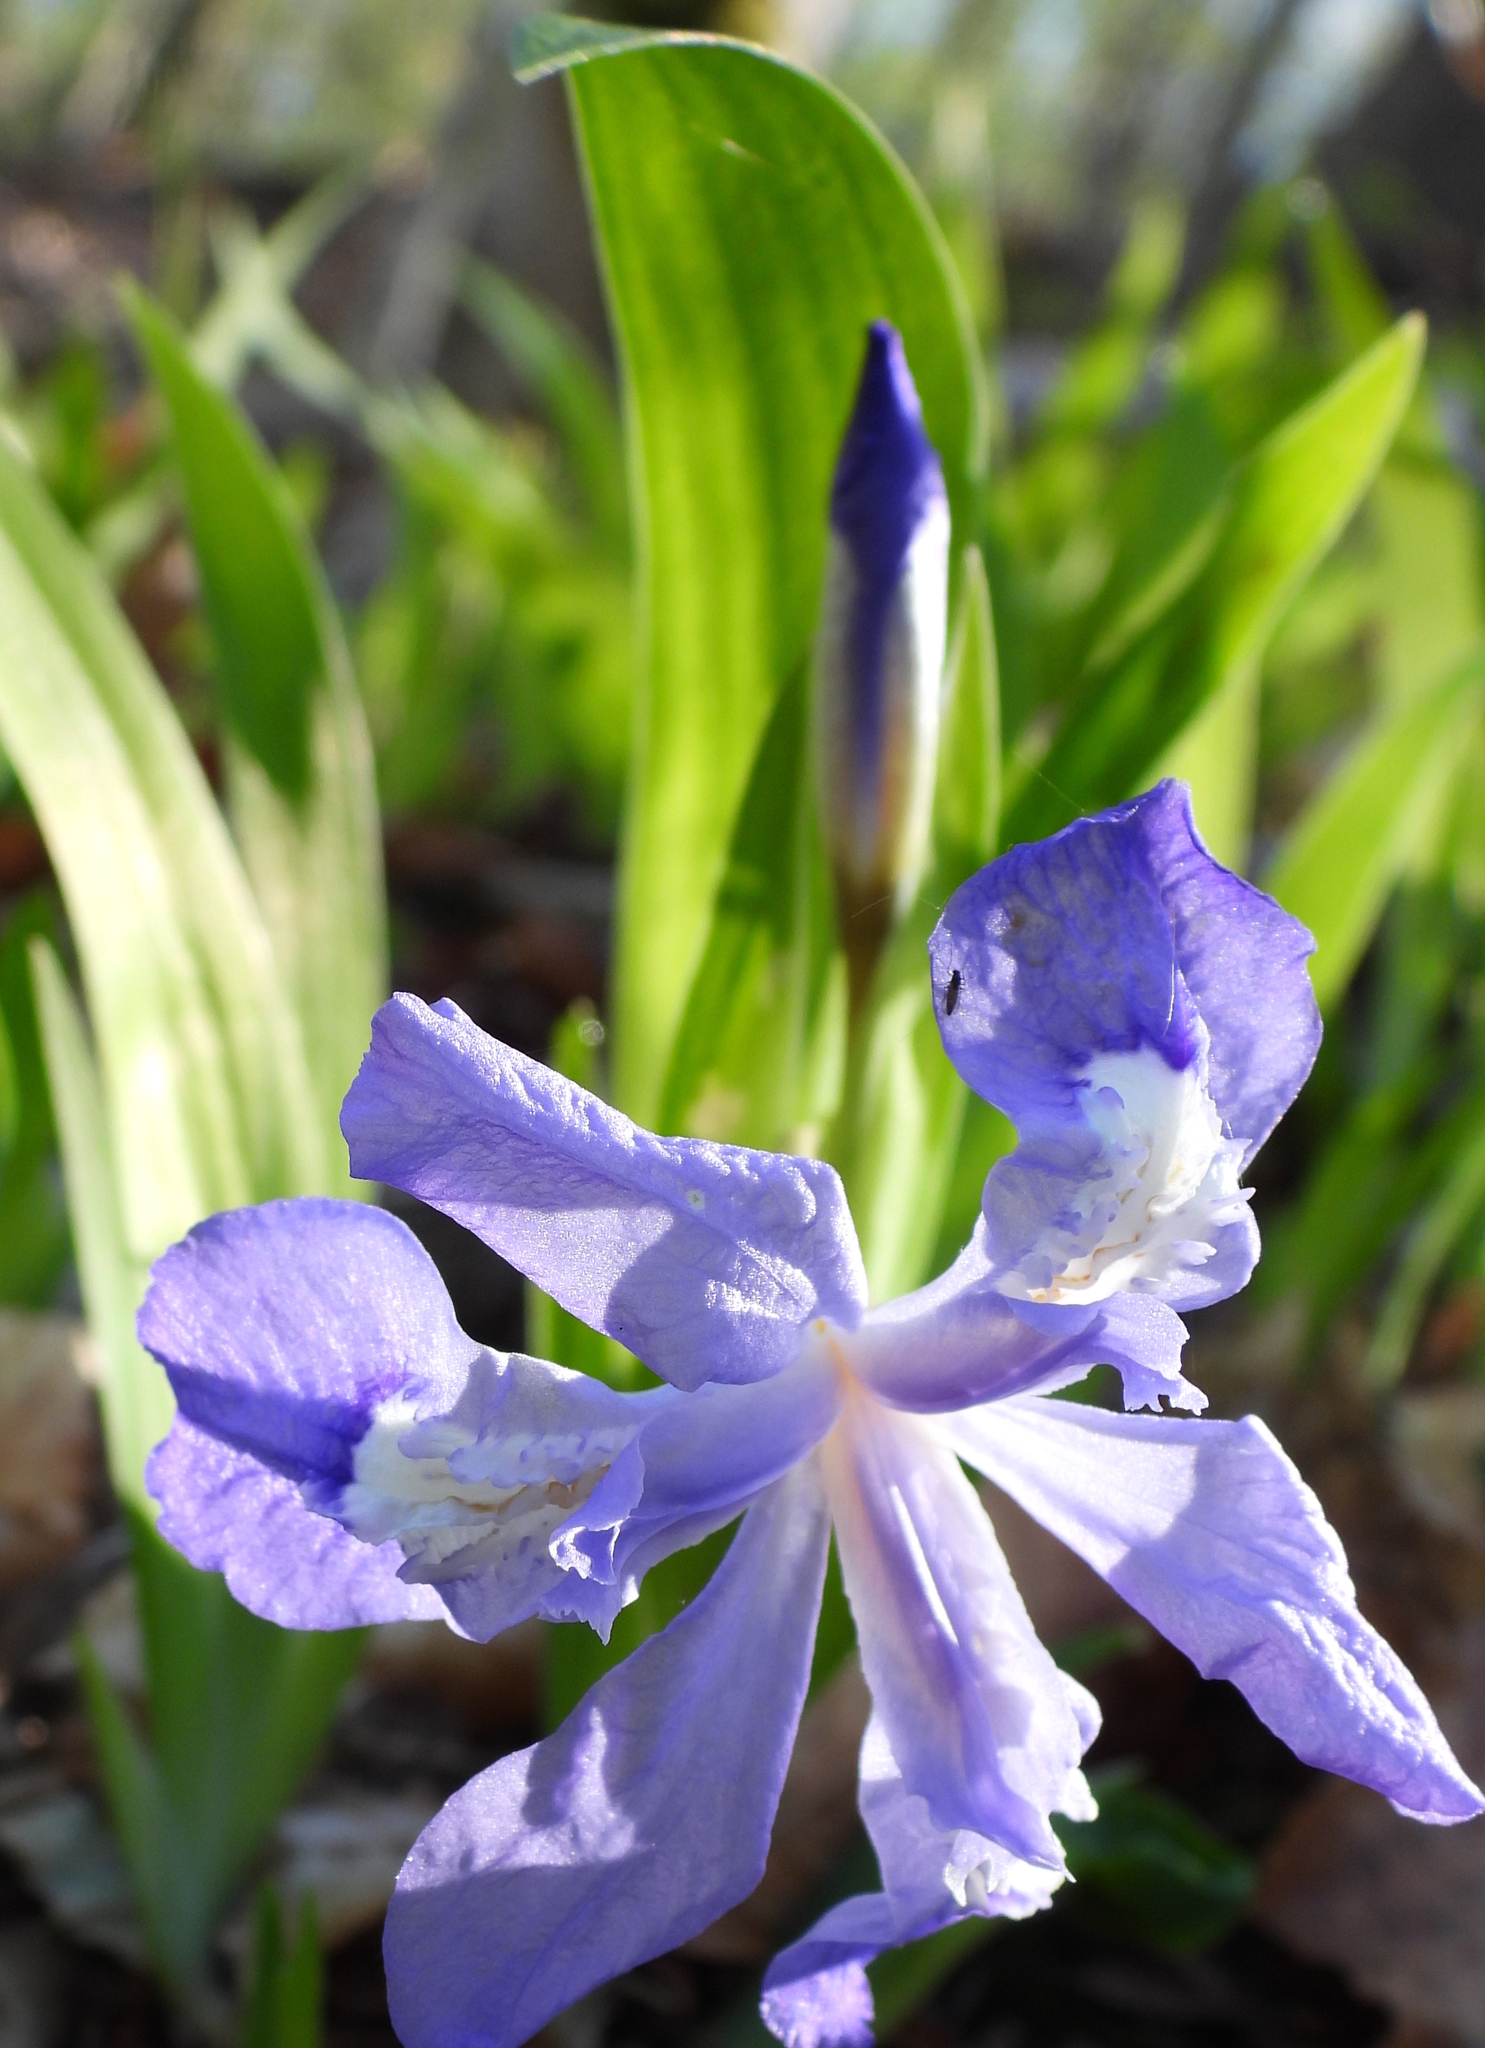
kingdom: Plantae
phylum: Tracheophyta
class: Liliopsida
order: Asparagales
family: Iridaceae
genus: Iris
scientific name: Iris cristata
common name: Crested iris
